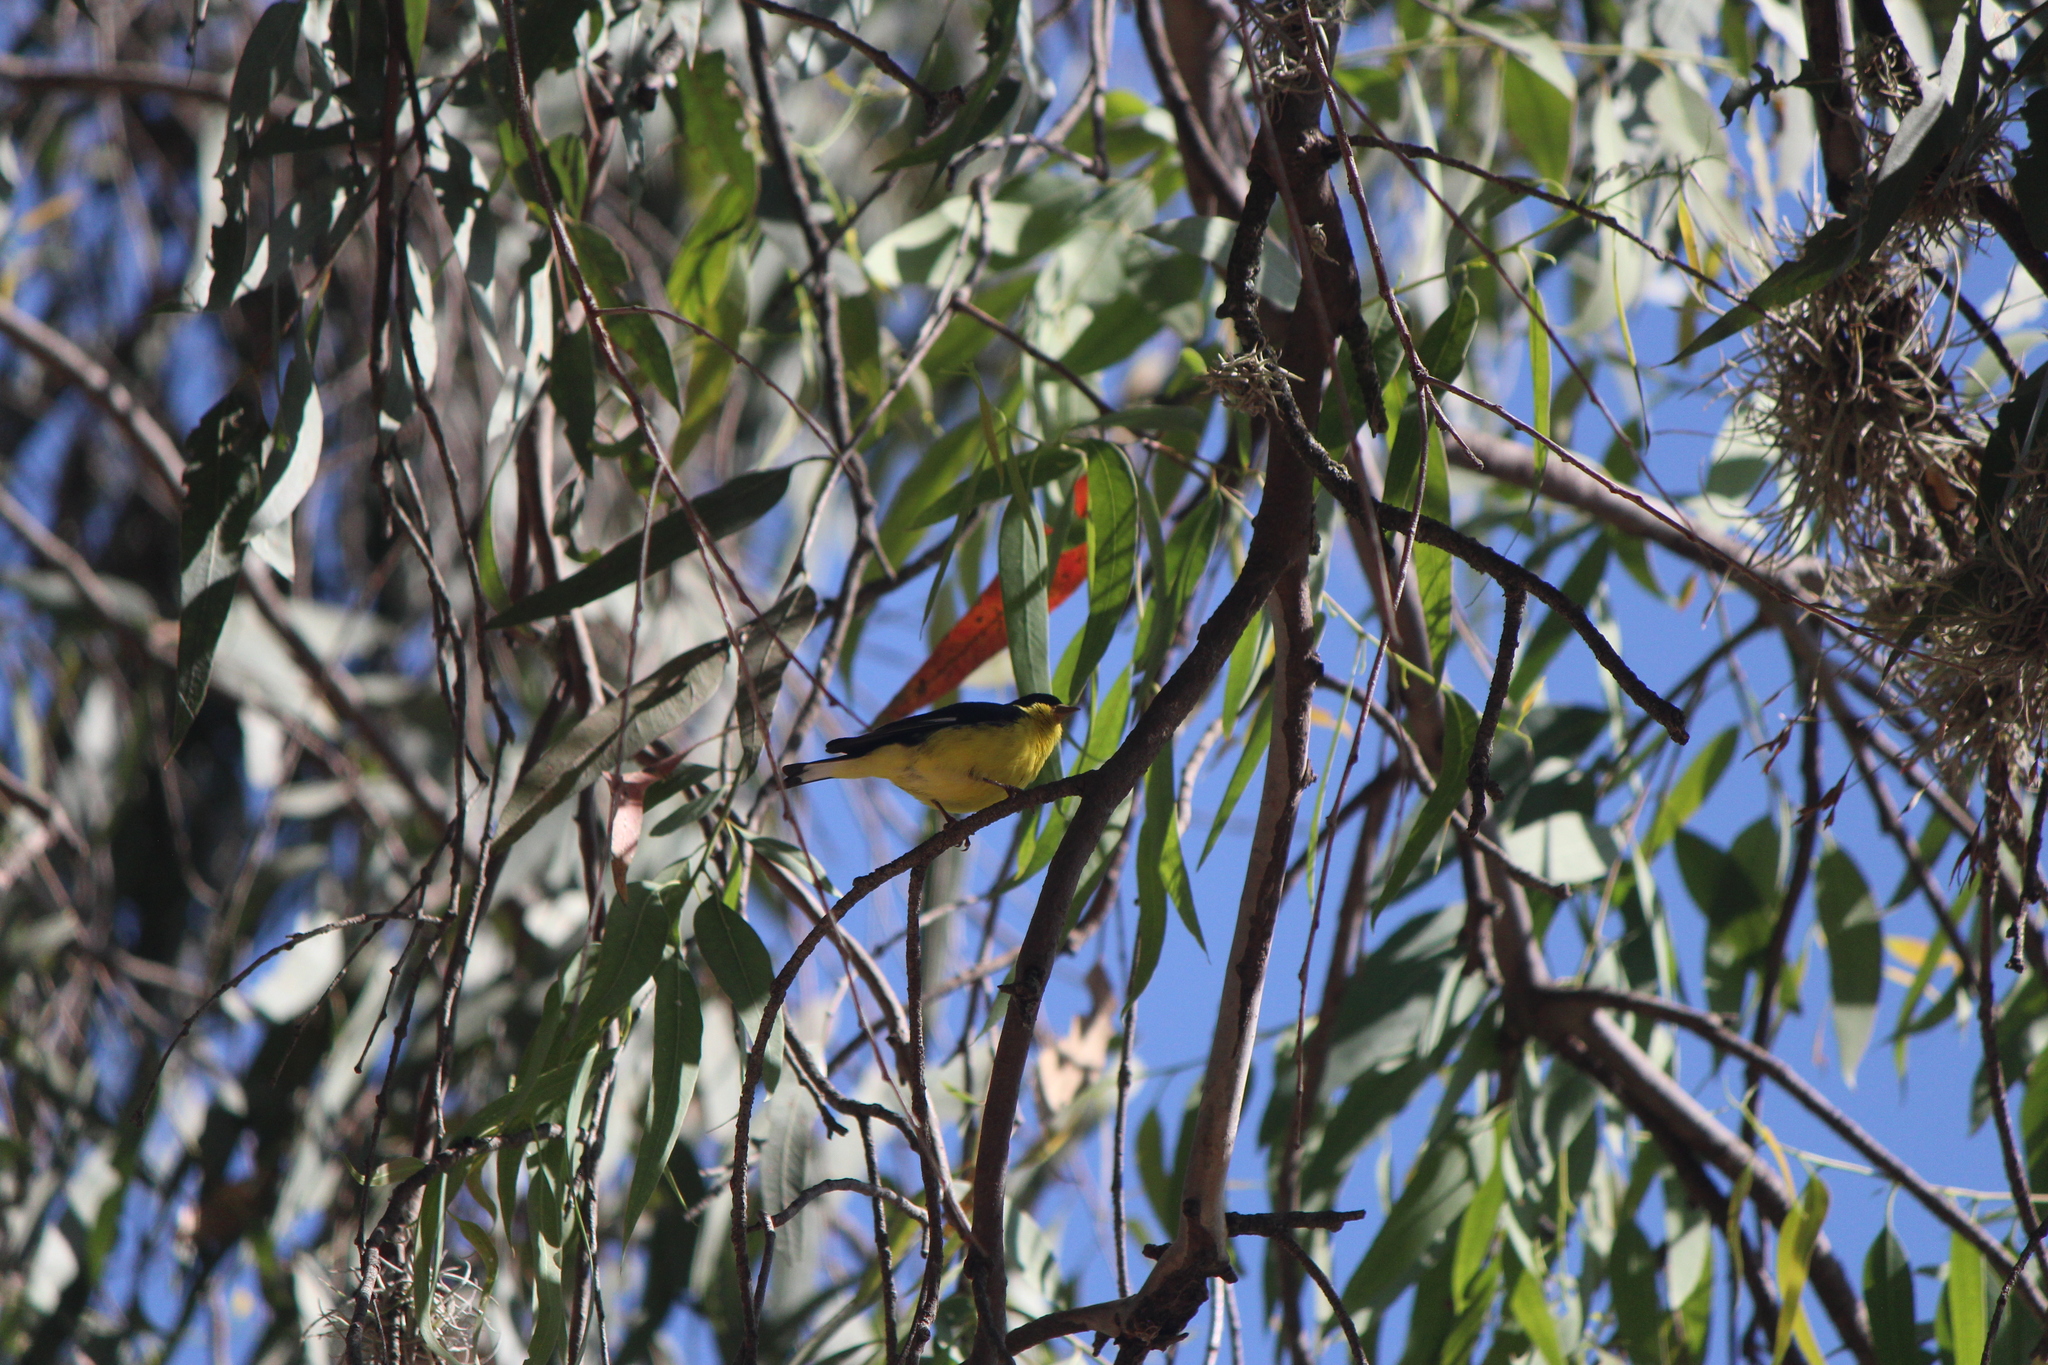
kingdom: Animalia
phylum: Chordata
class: Aves
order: Passeriformes
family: Fringillidae
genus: Spinus
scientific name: Spinus psaltria
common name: Lesser goldfinch
